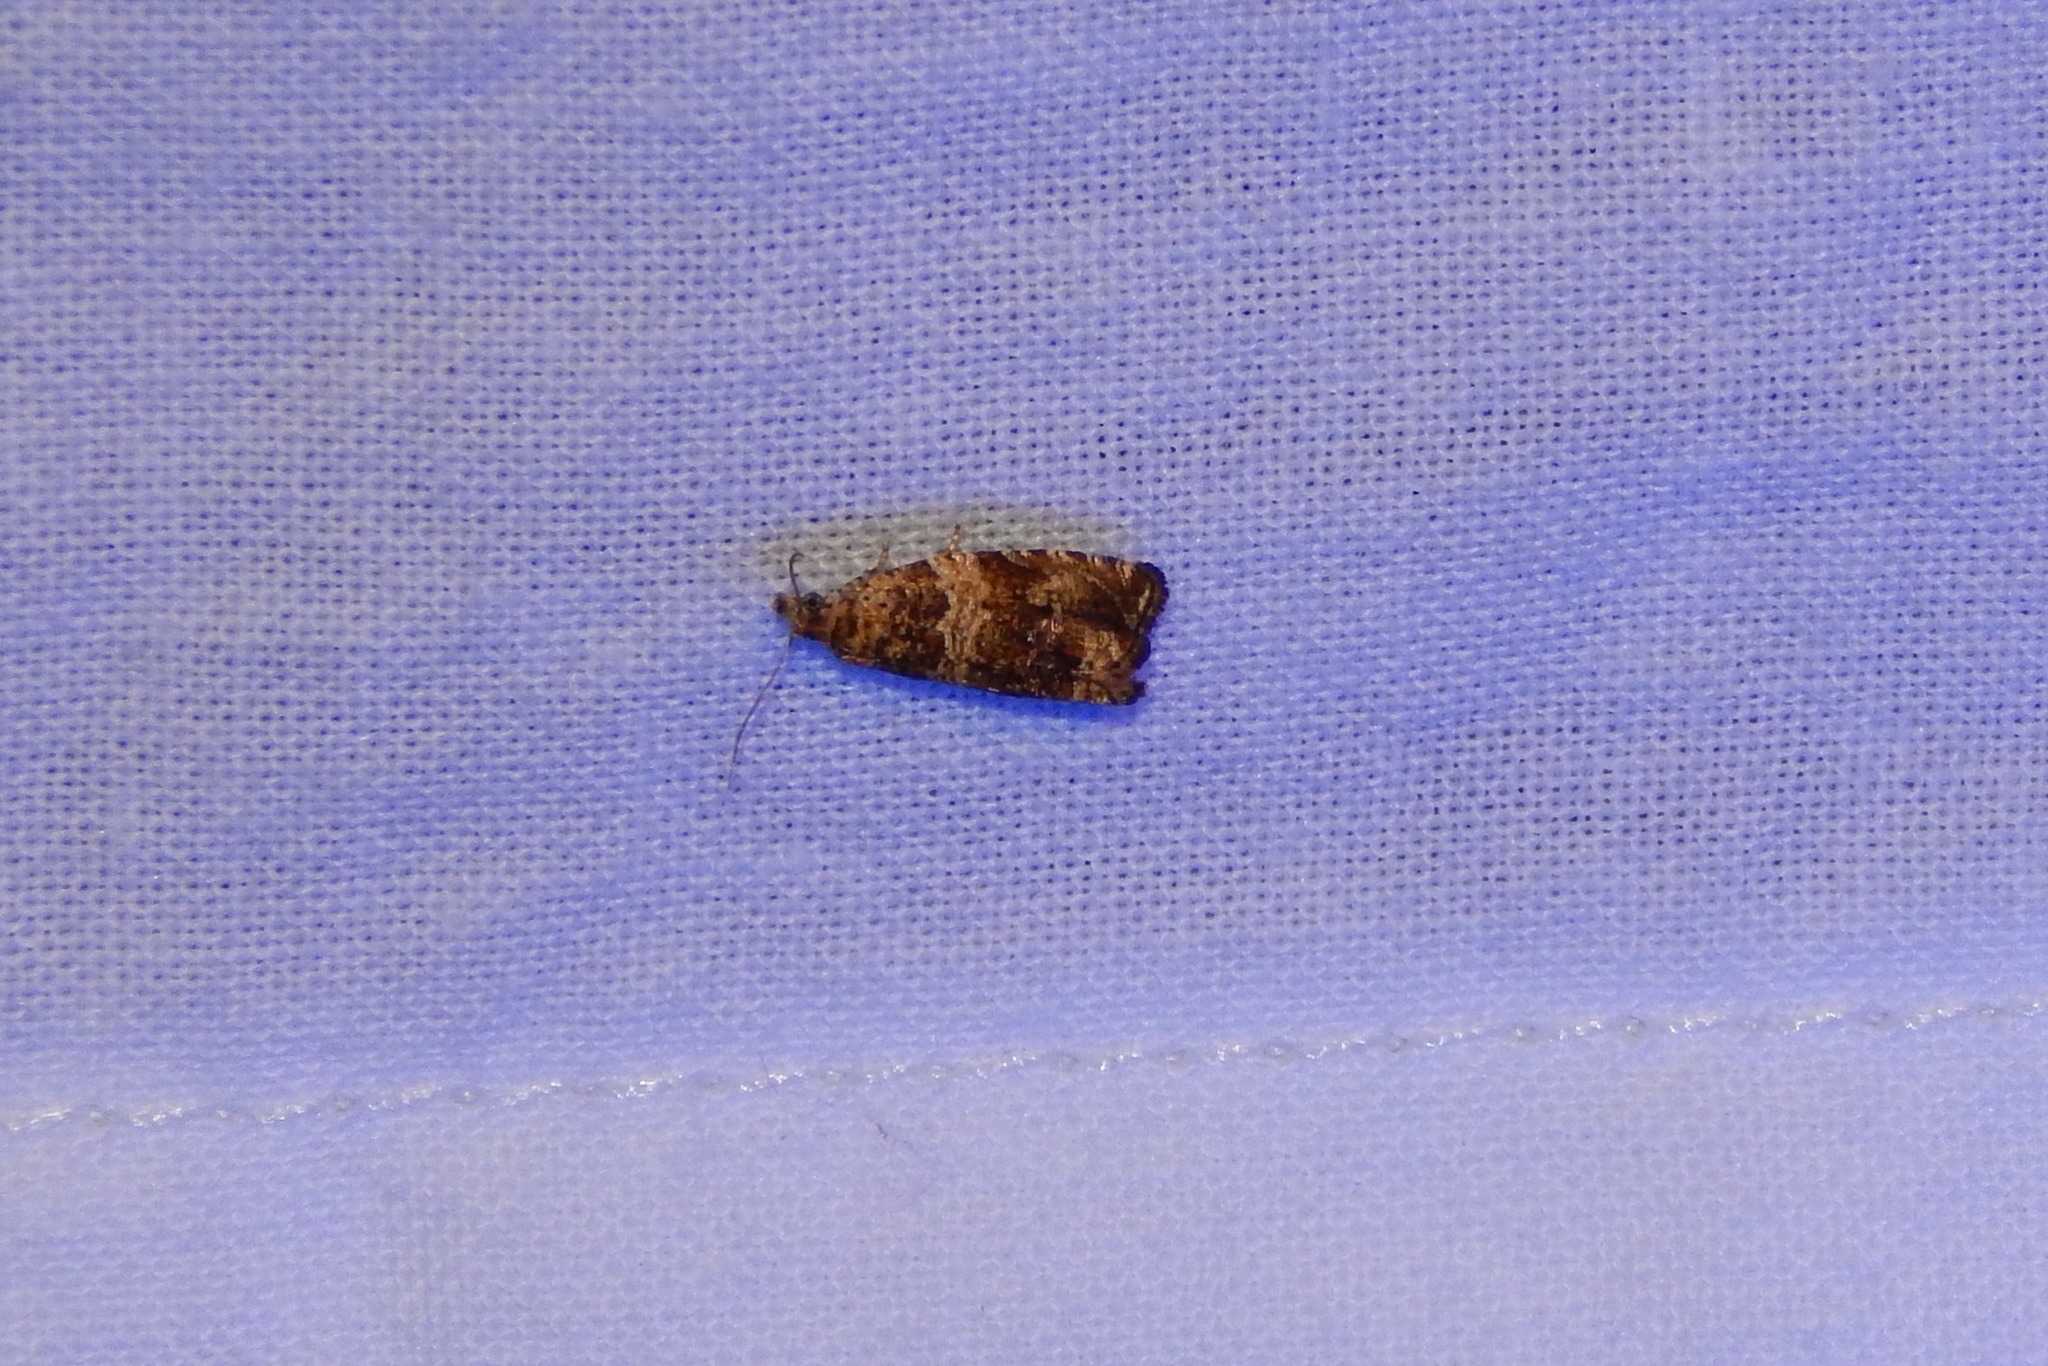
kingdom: Animalia
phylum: Arthropoda
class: Insecta
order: Lepidoptera
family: Tortricidae
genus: Celypha
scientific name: Celypha cespitana
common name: Thyme marble
